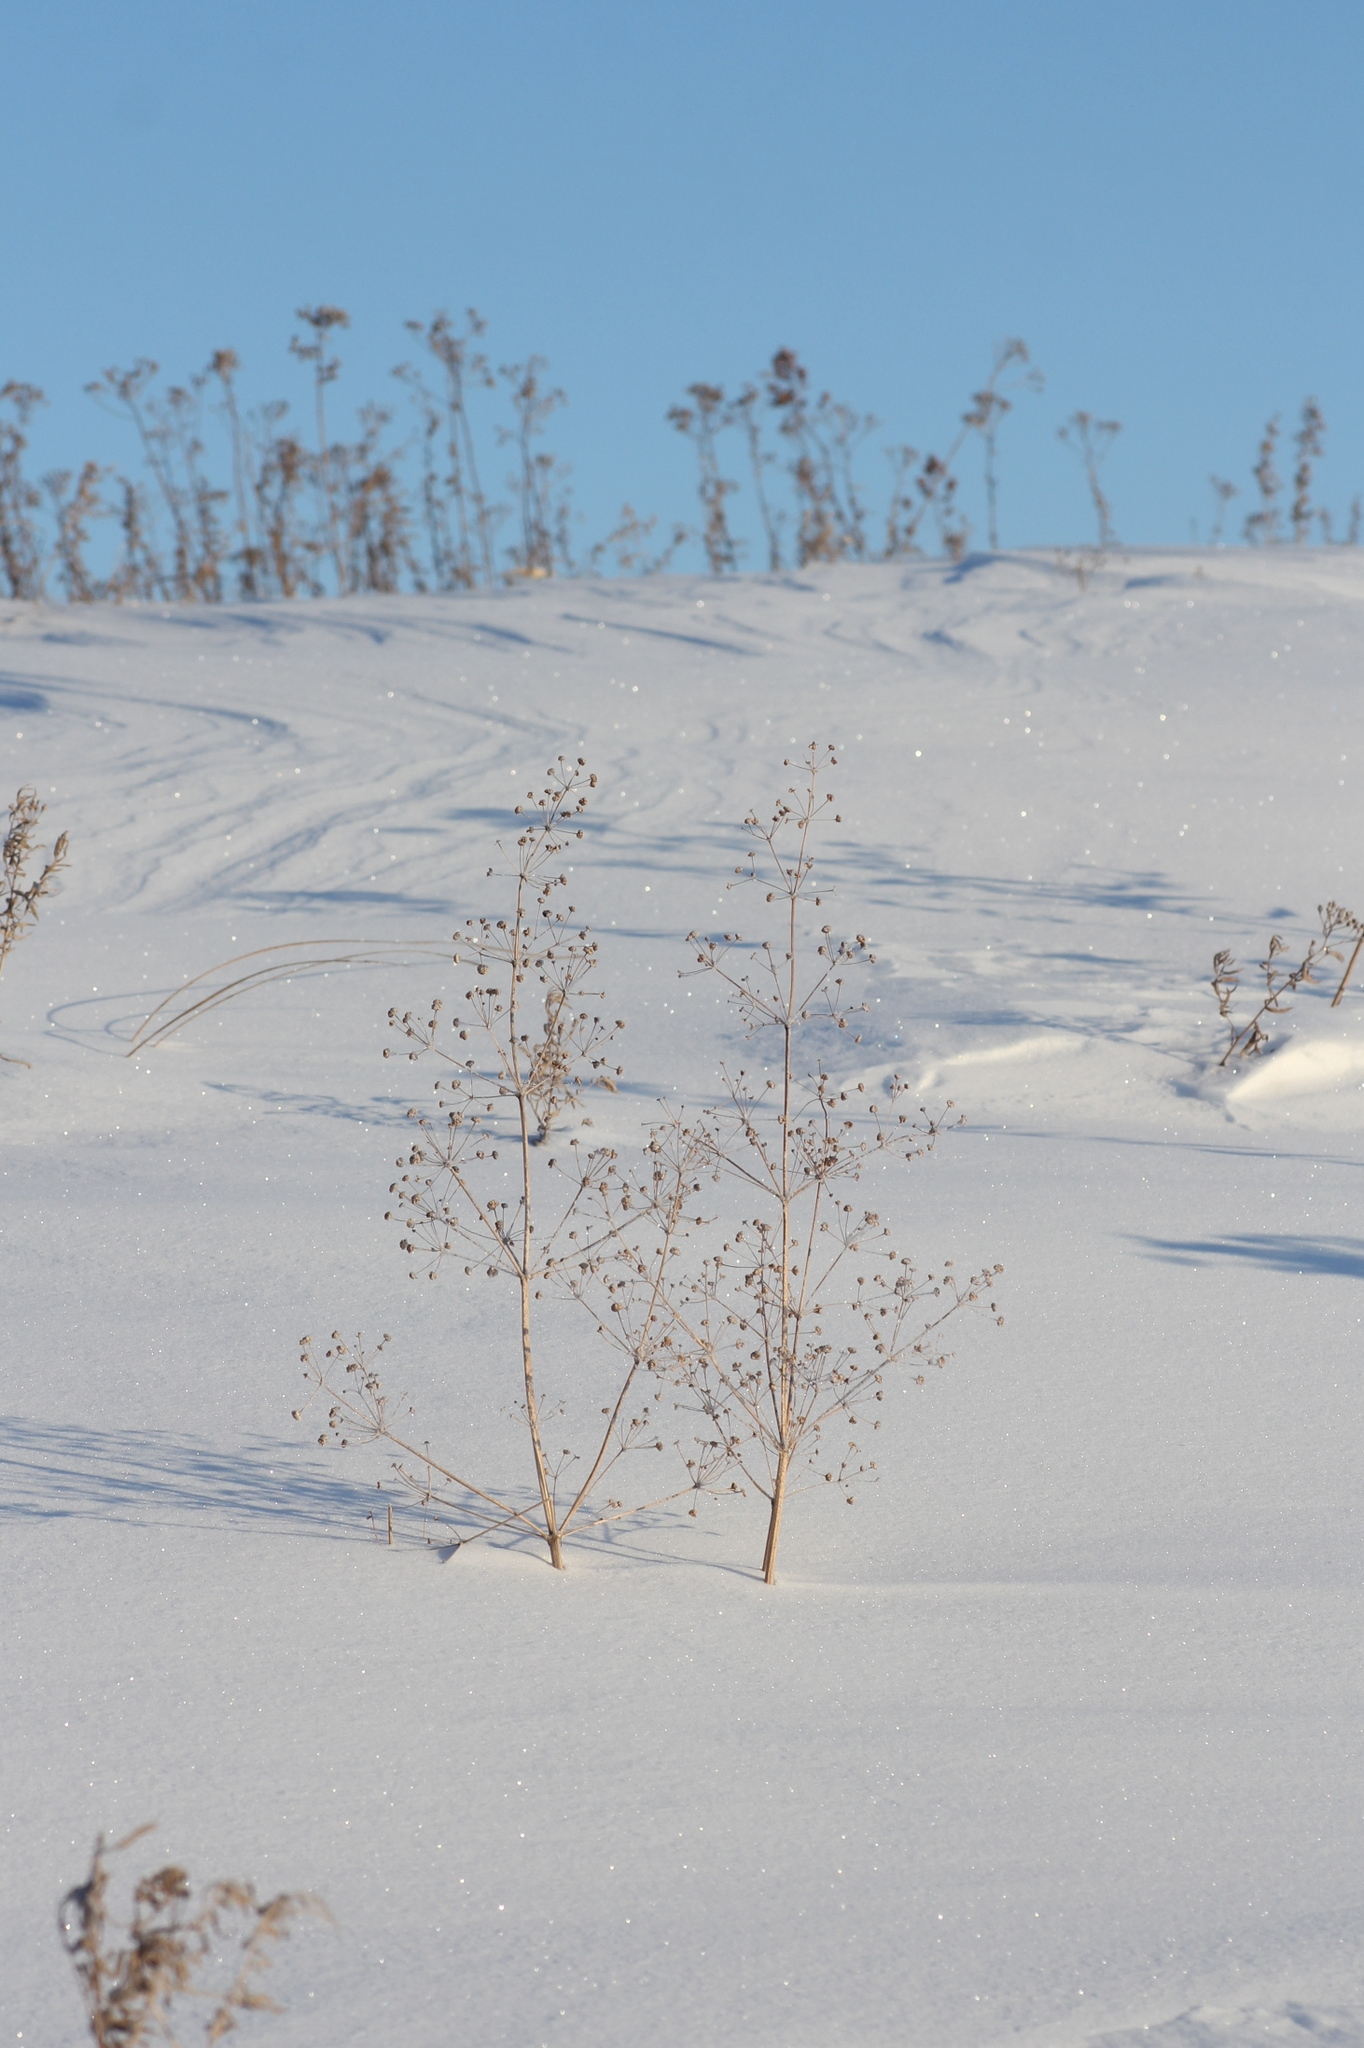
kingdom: Plantae
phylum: Tracheophyta
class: Liliopsida
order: Alismatales
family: Alismataceae
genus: Alisma
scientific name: Alisma plantago-aquatica
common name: Water-plantain
